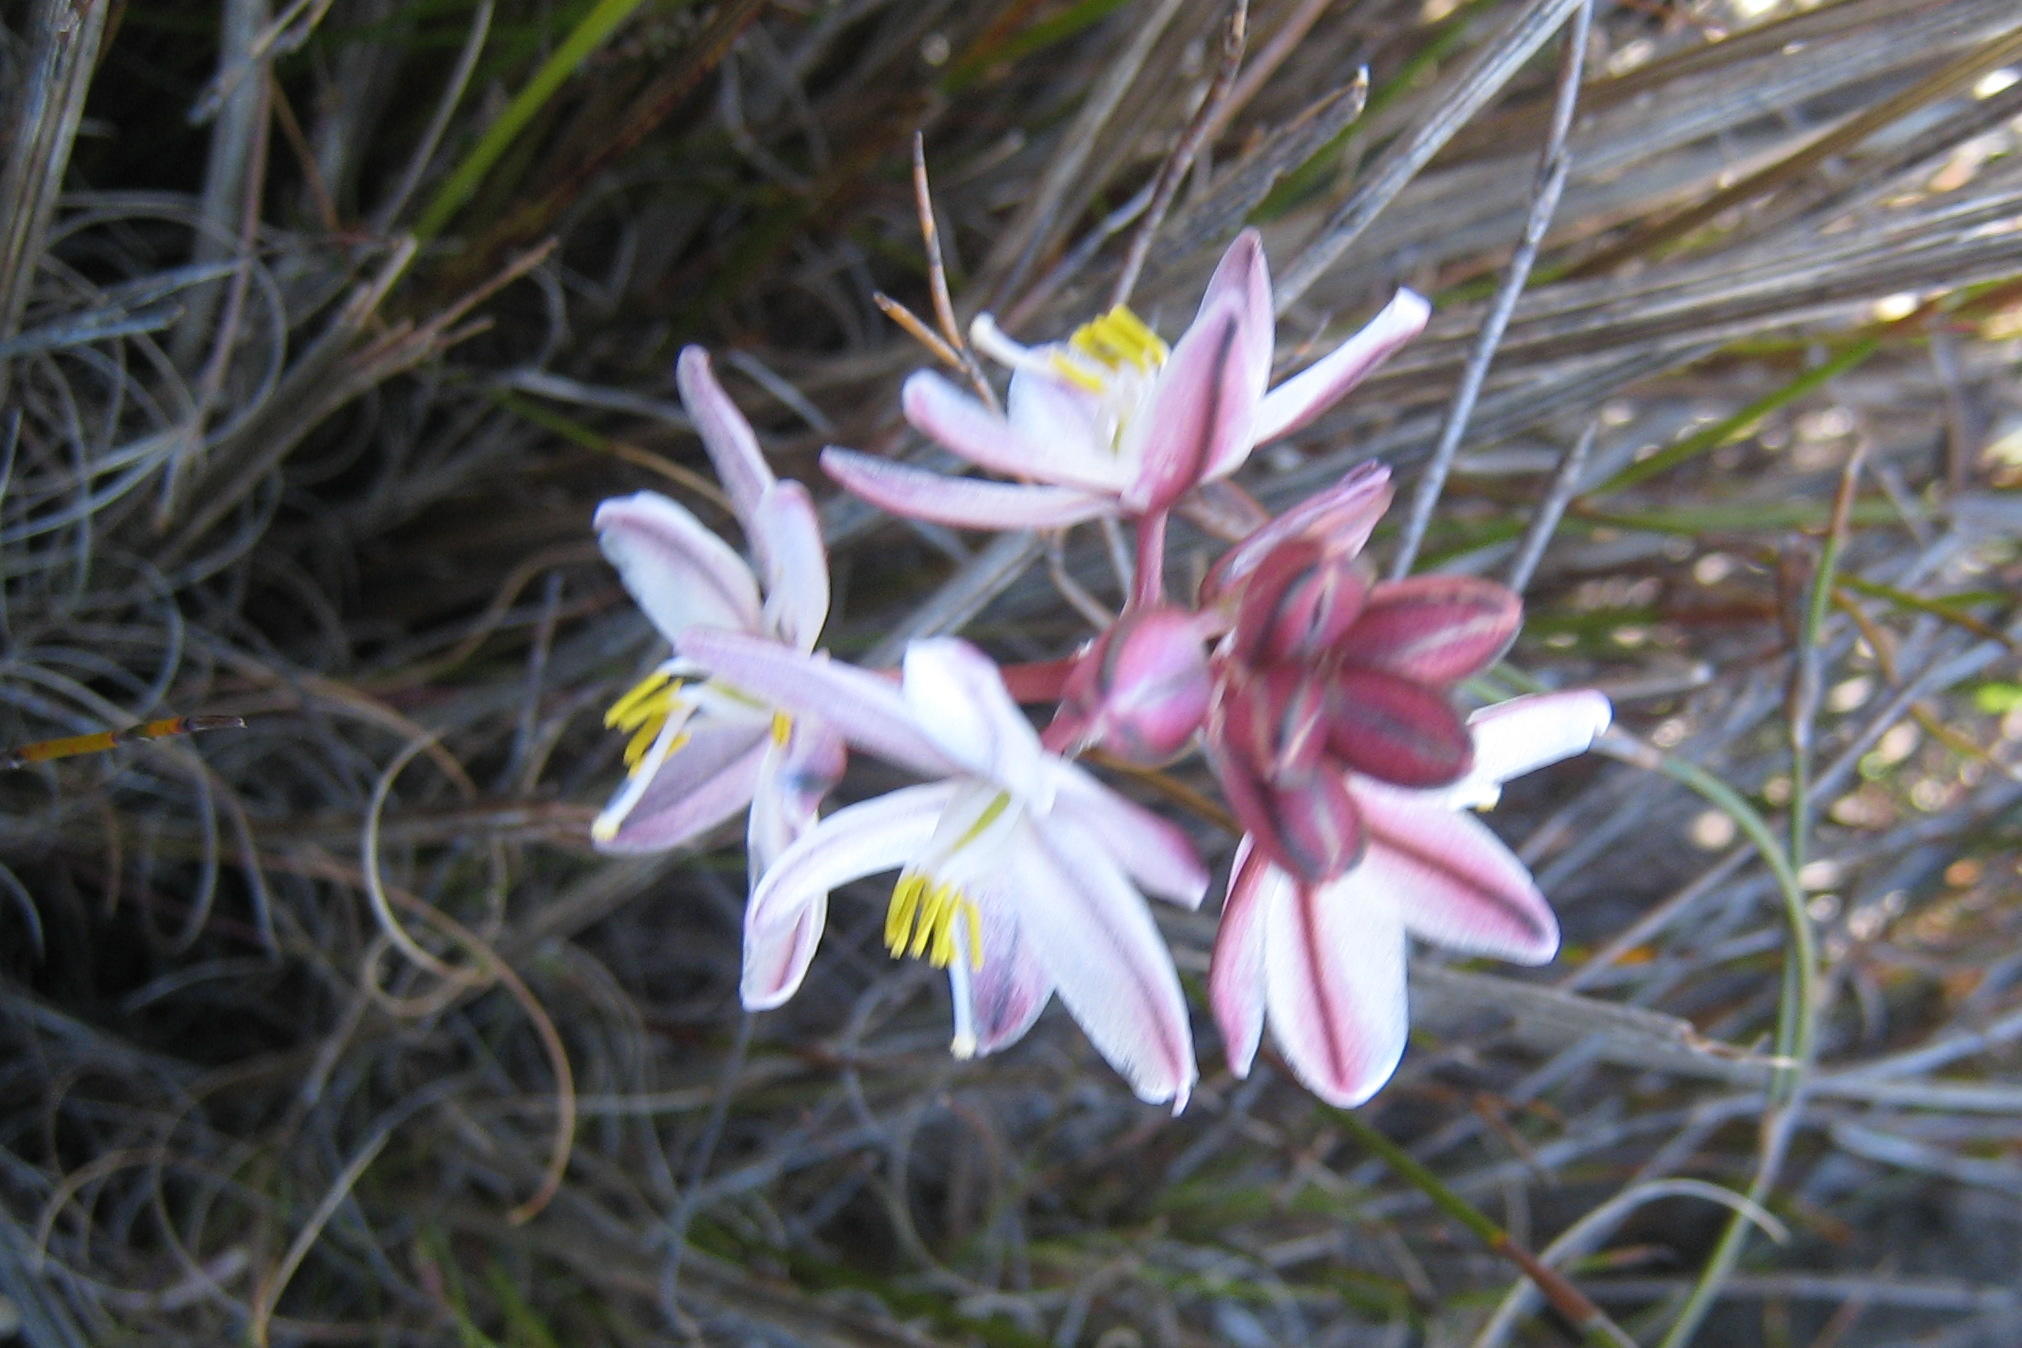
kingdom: Plantae
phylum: Tracheophyta
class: Liliopsida
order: Asparagales
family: Asparagaceae
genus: Drimia
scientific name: Drimia exuviata
